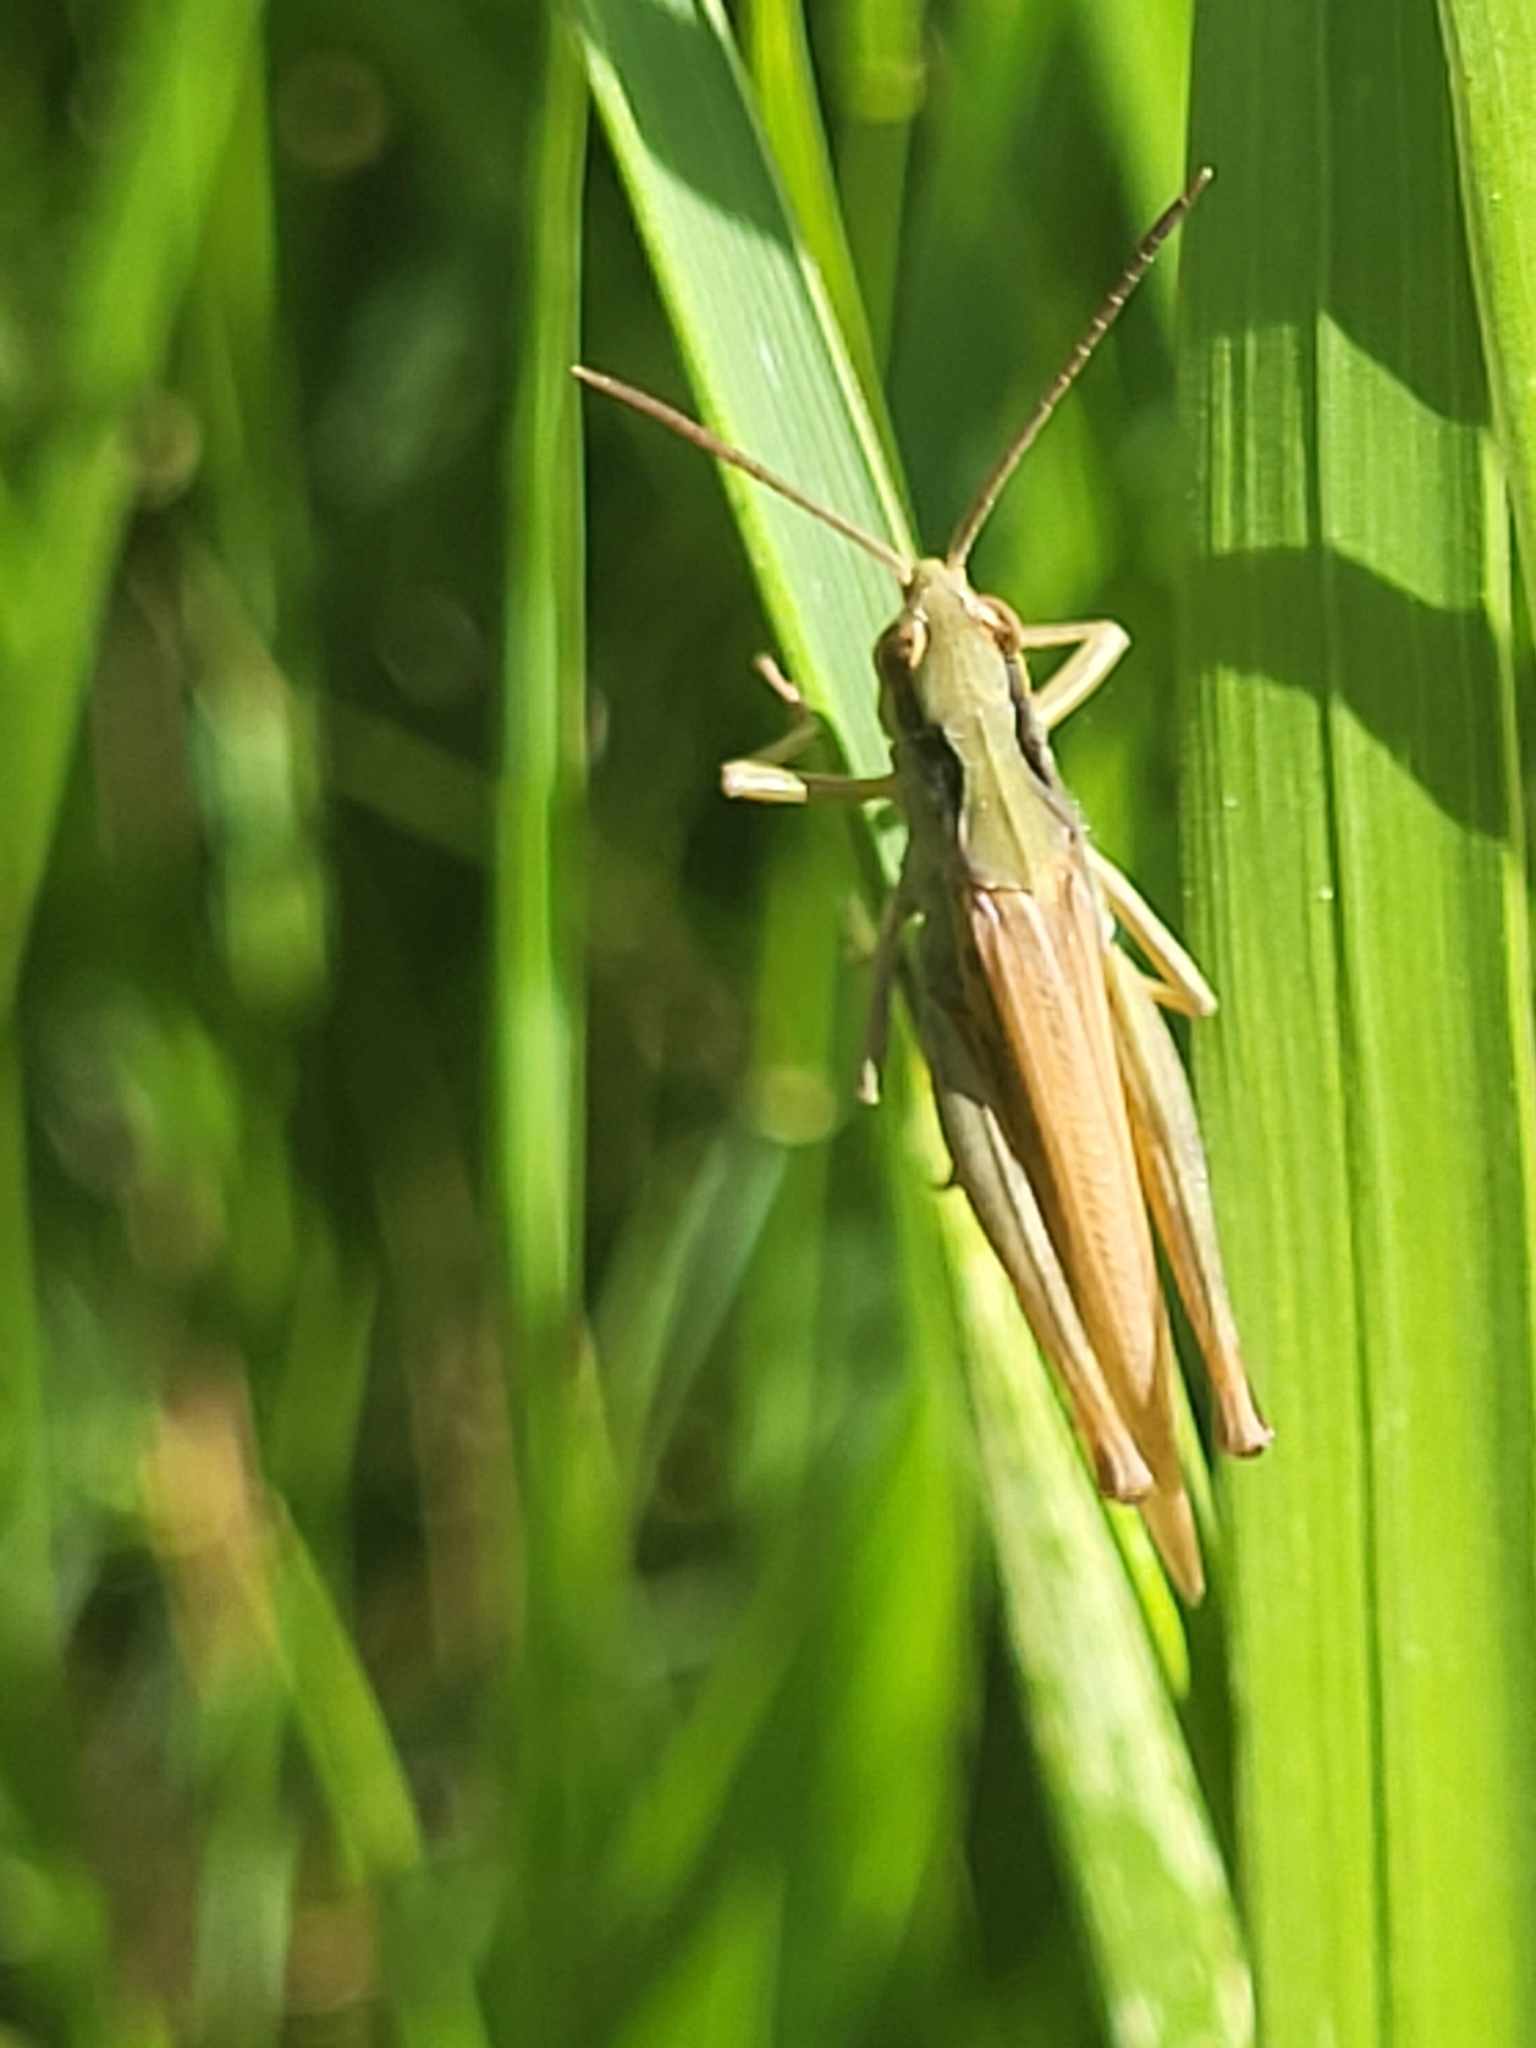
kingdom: Animalia
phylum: Arthropoda
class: Insecta
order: Orthoptera
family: Acrididae
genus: Chorthippus
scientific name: Chorthippus fallax
